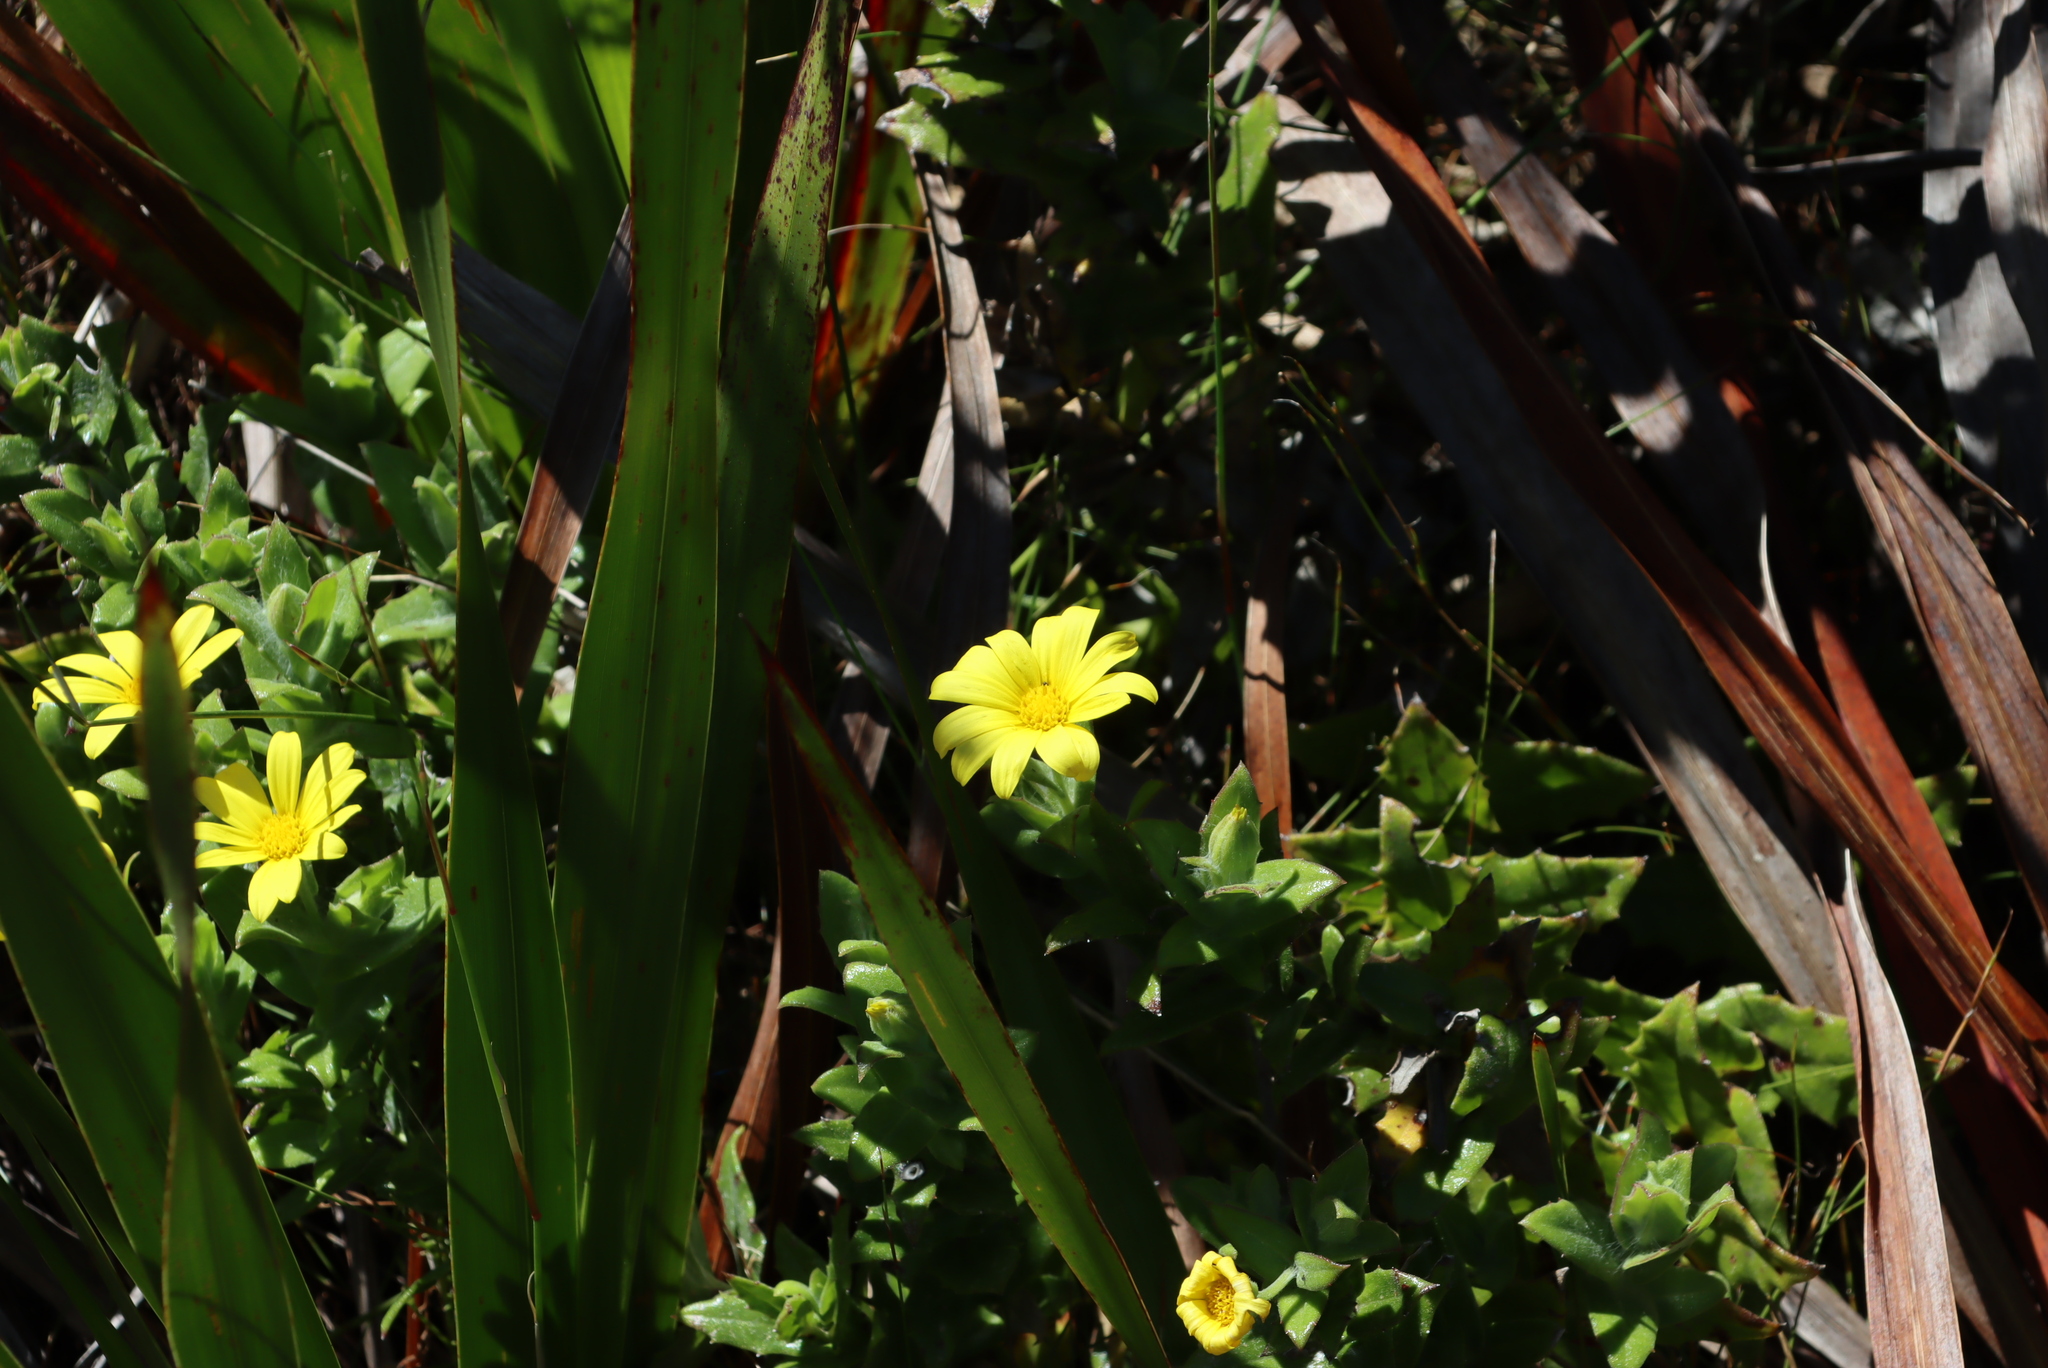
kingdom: Plantae
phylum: Tracheophyta
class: Magnoliopsida
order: Asterales
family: Asteraceae
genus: Osteospermum
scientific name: Osteospermum ilicifolium
